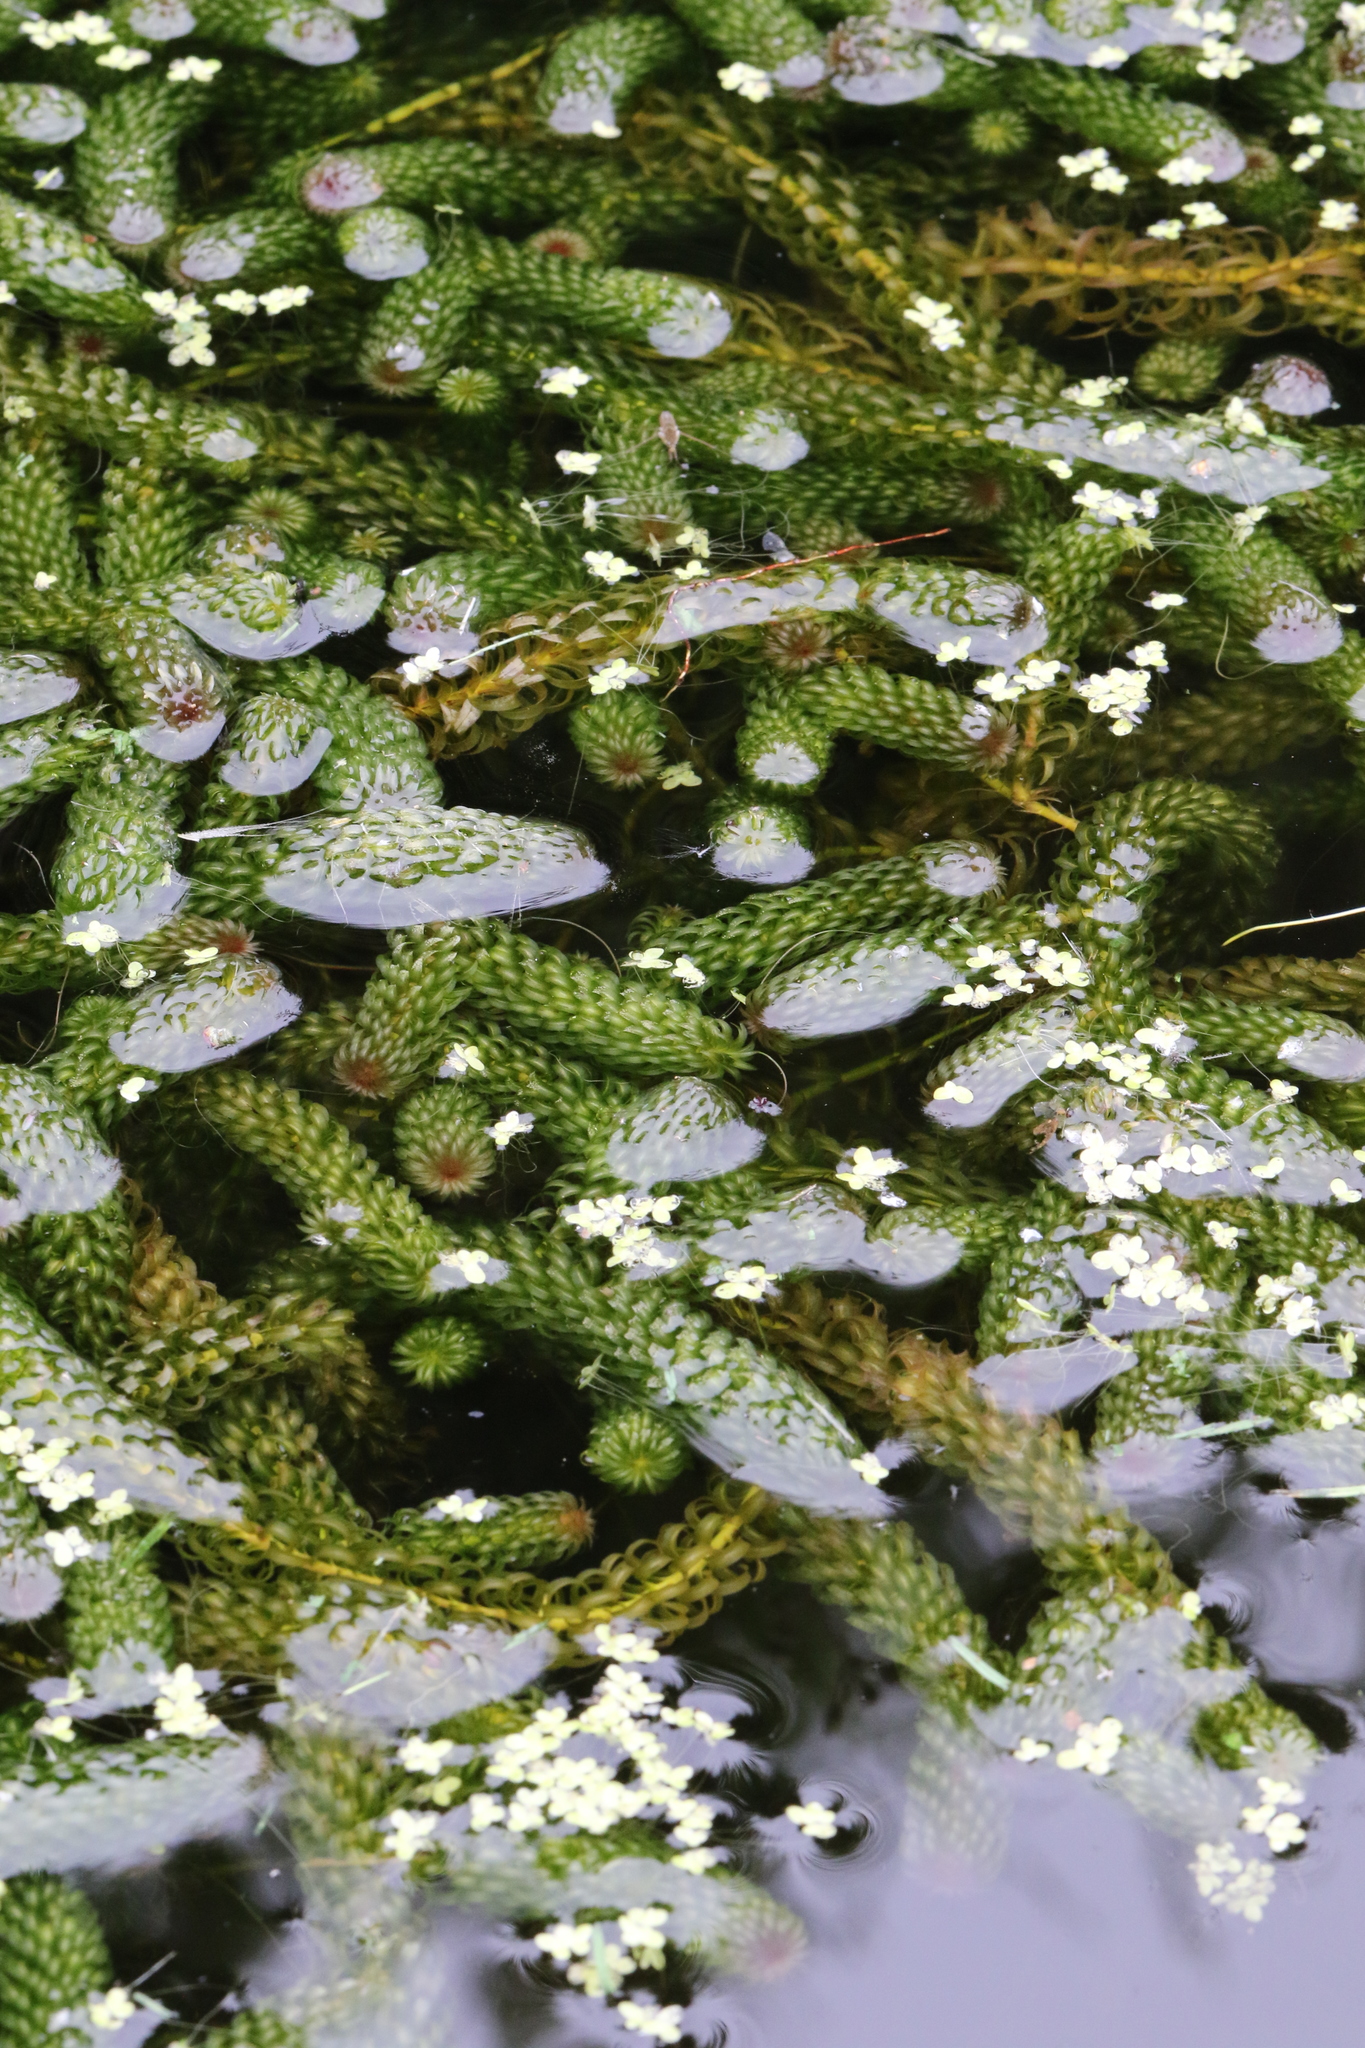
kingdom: Plantae
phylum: Tracheophyta
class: Liliopsida
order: Alismatales
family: Hydrocharitaceae
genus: Lagarosiphon
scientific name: Lagarosiphon major
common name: Curly waterweed
